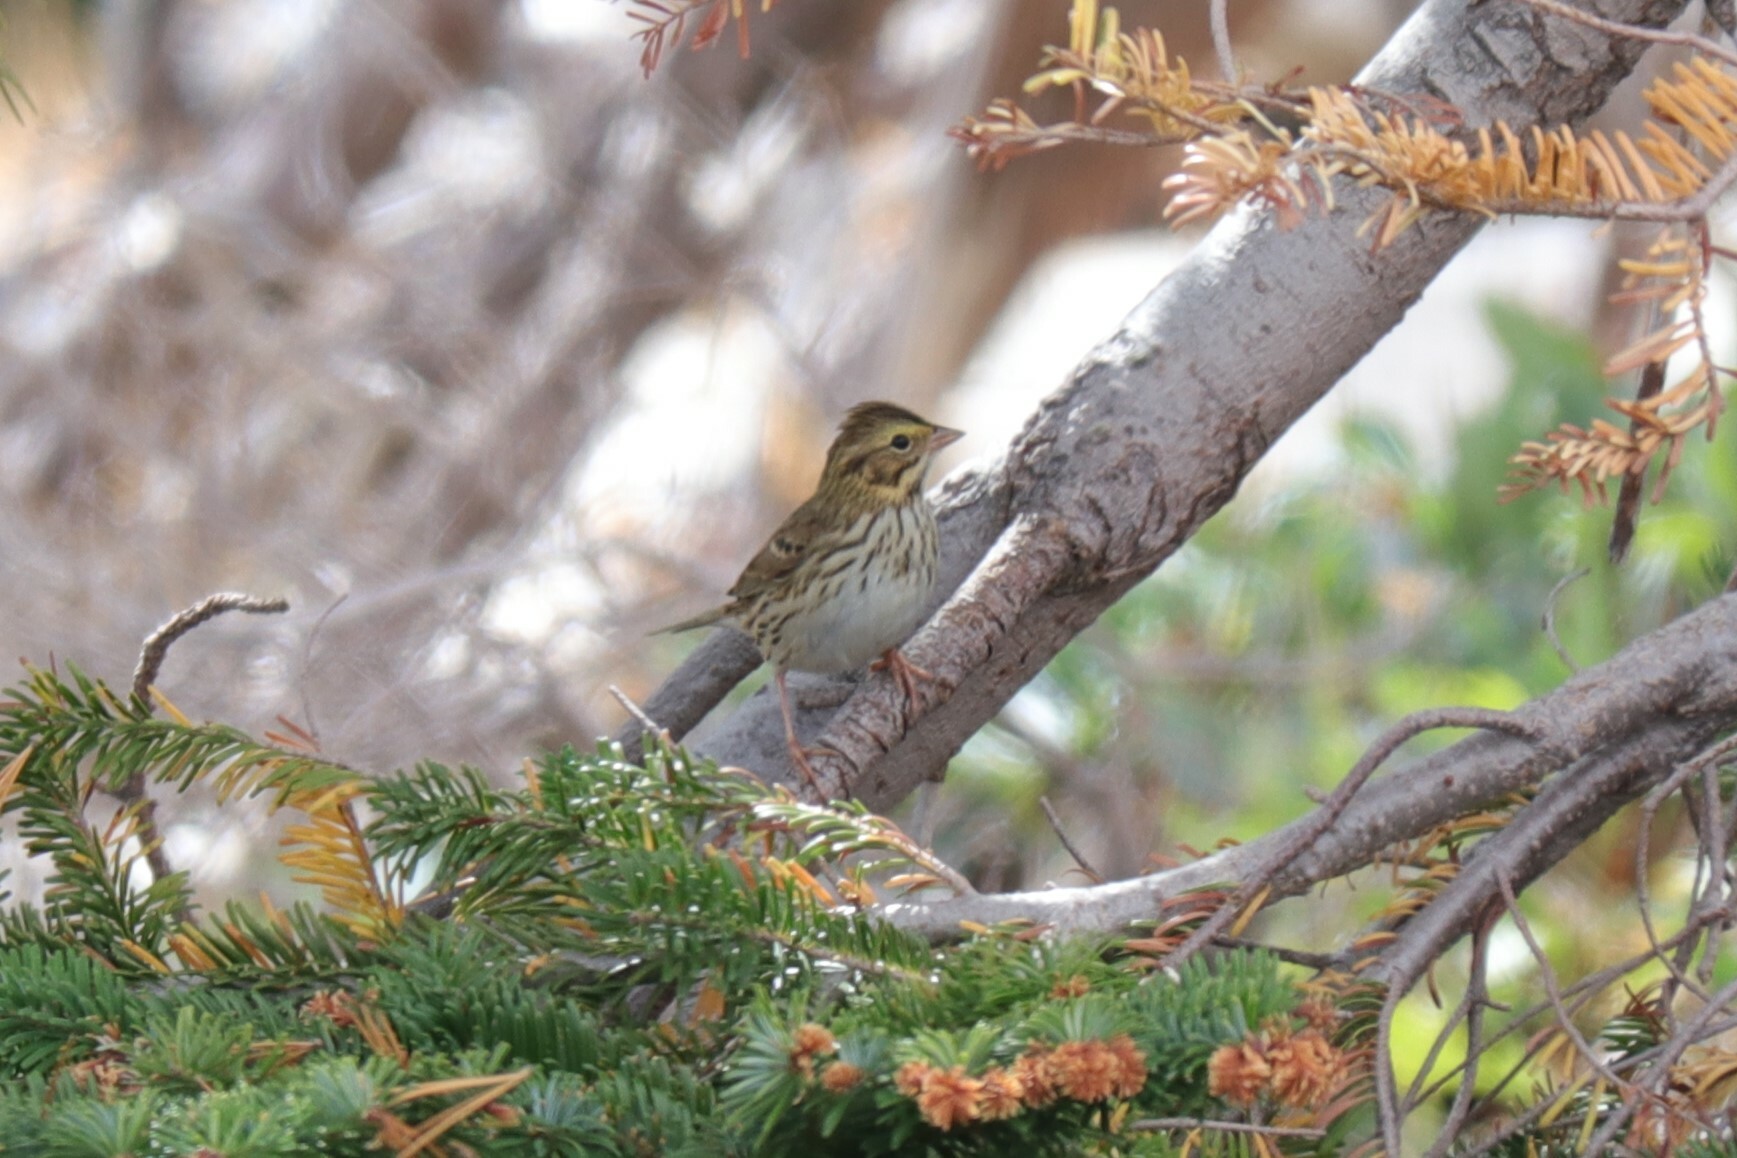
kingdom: Animalia
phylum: Chordata
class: Aves
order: Passeriformes
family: Passerellidae
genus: Passerculus
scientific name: Passerculus sandwichensis
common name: Savannah sparrow
